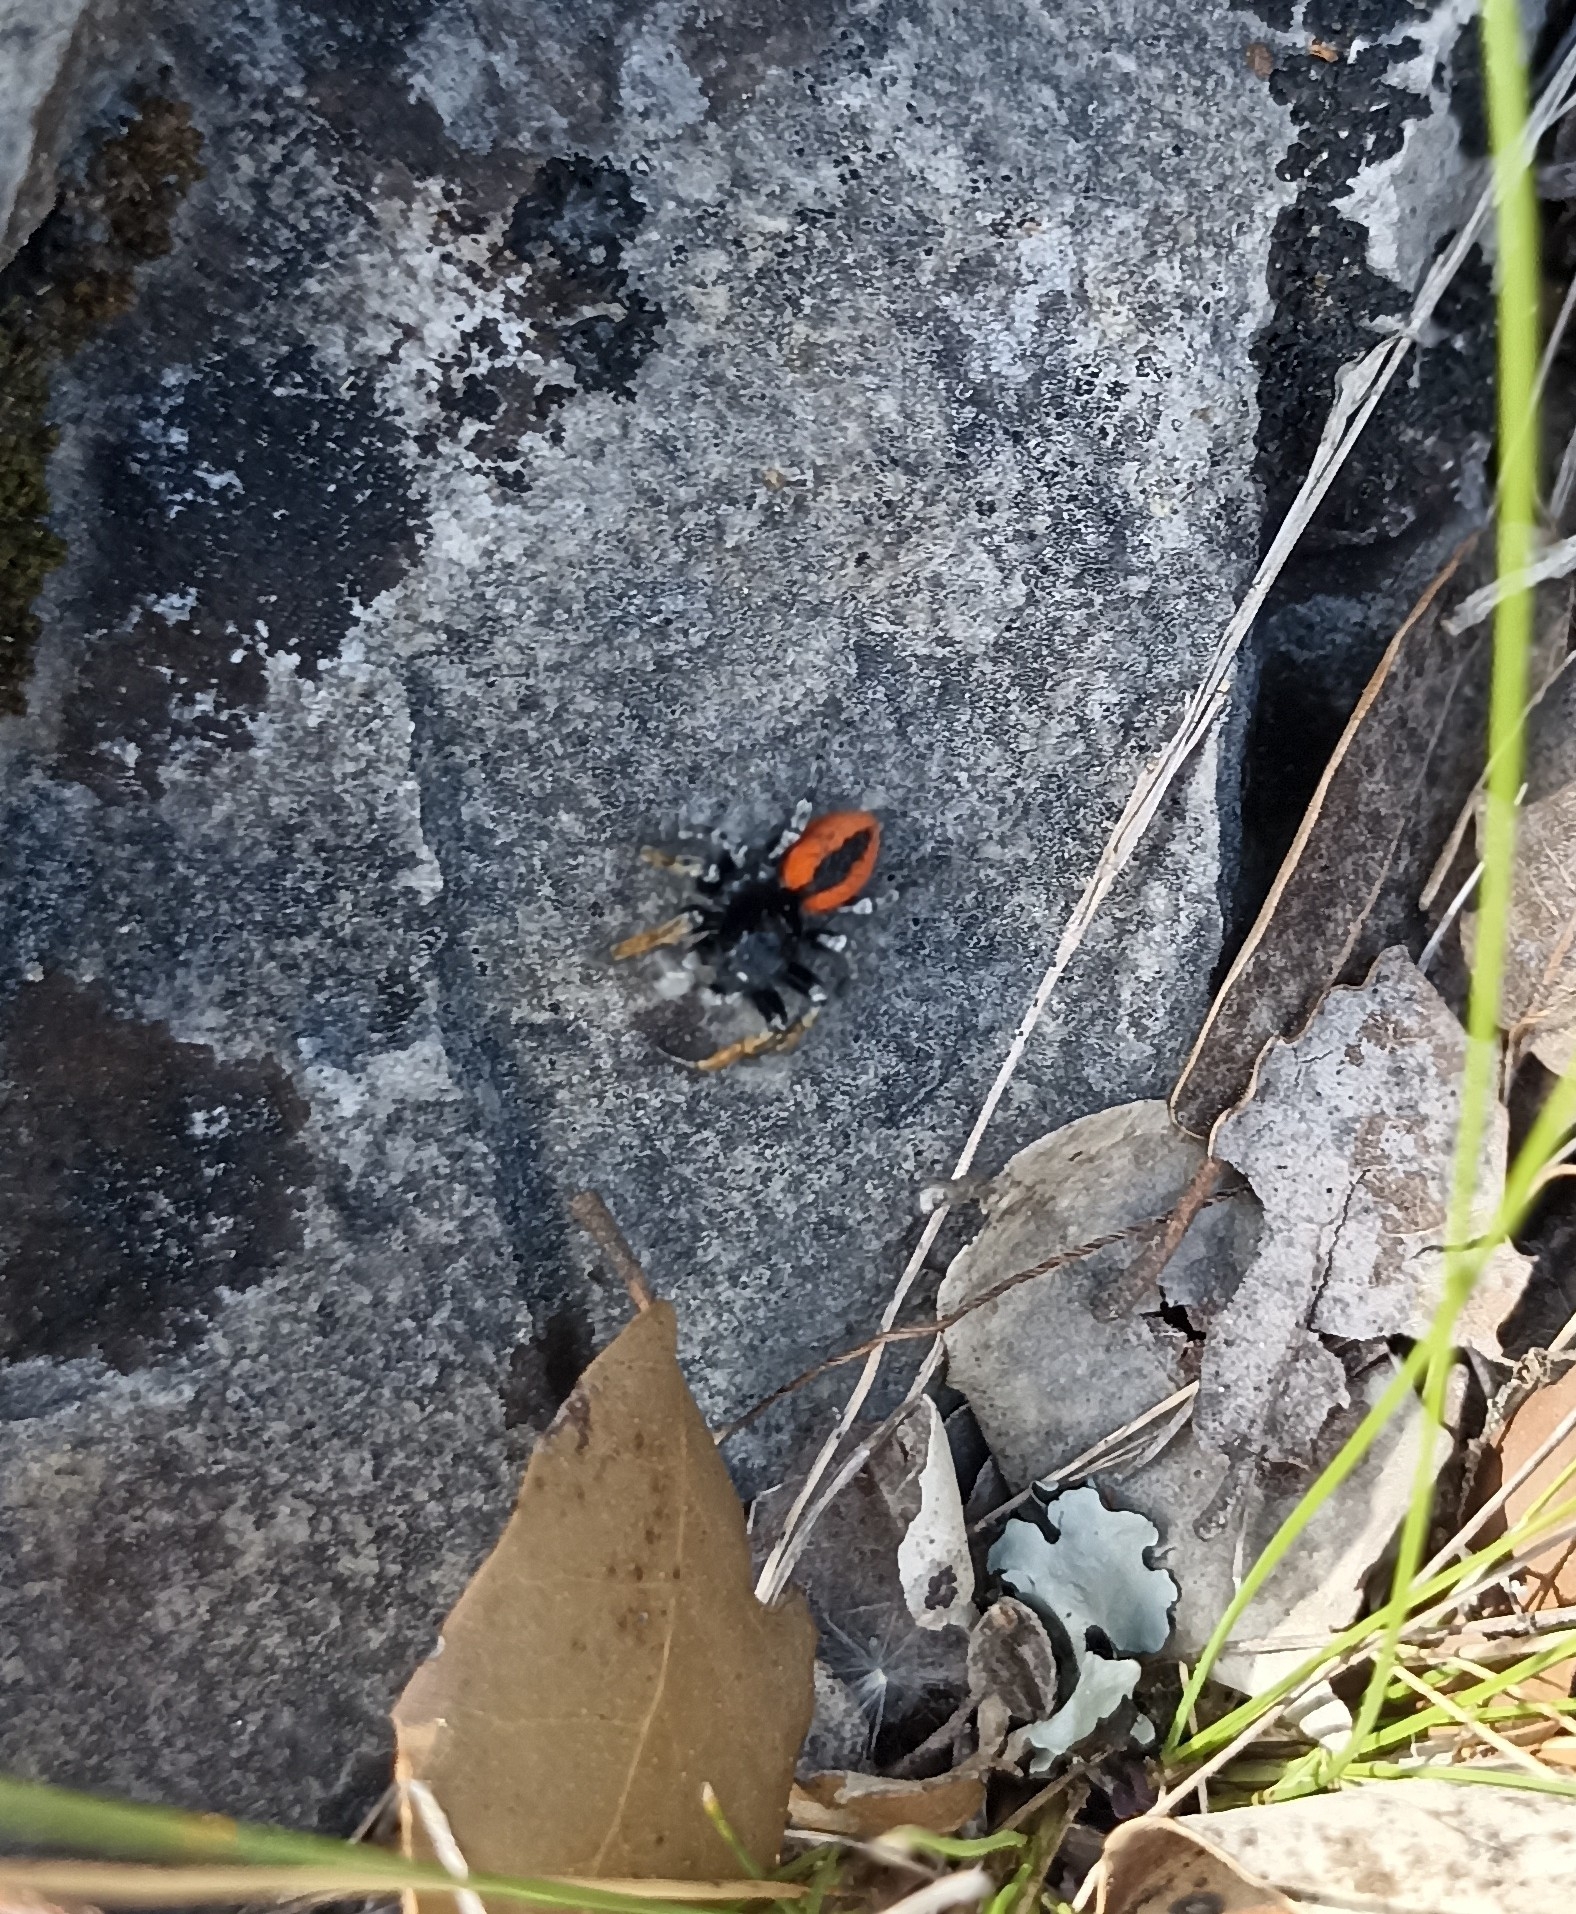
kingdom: Animalia
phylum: Arthropoda
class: Arachnida
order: Araneae
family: Salticidae
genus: Philaeus
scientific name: Philaeus chrysops
